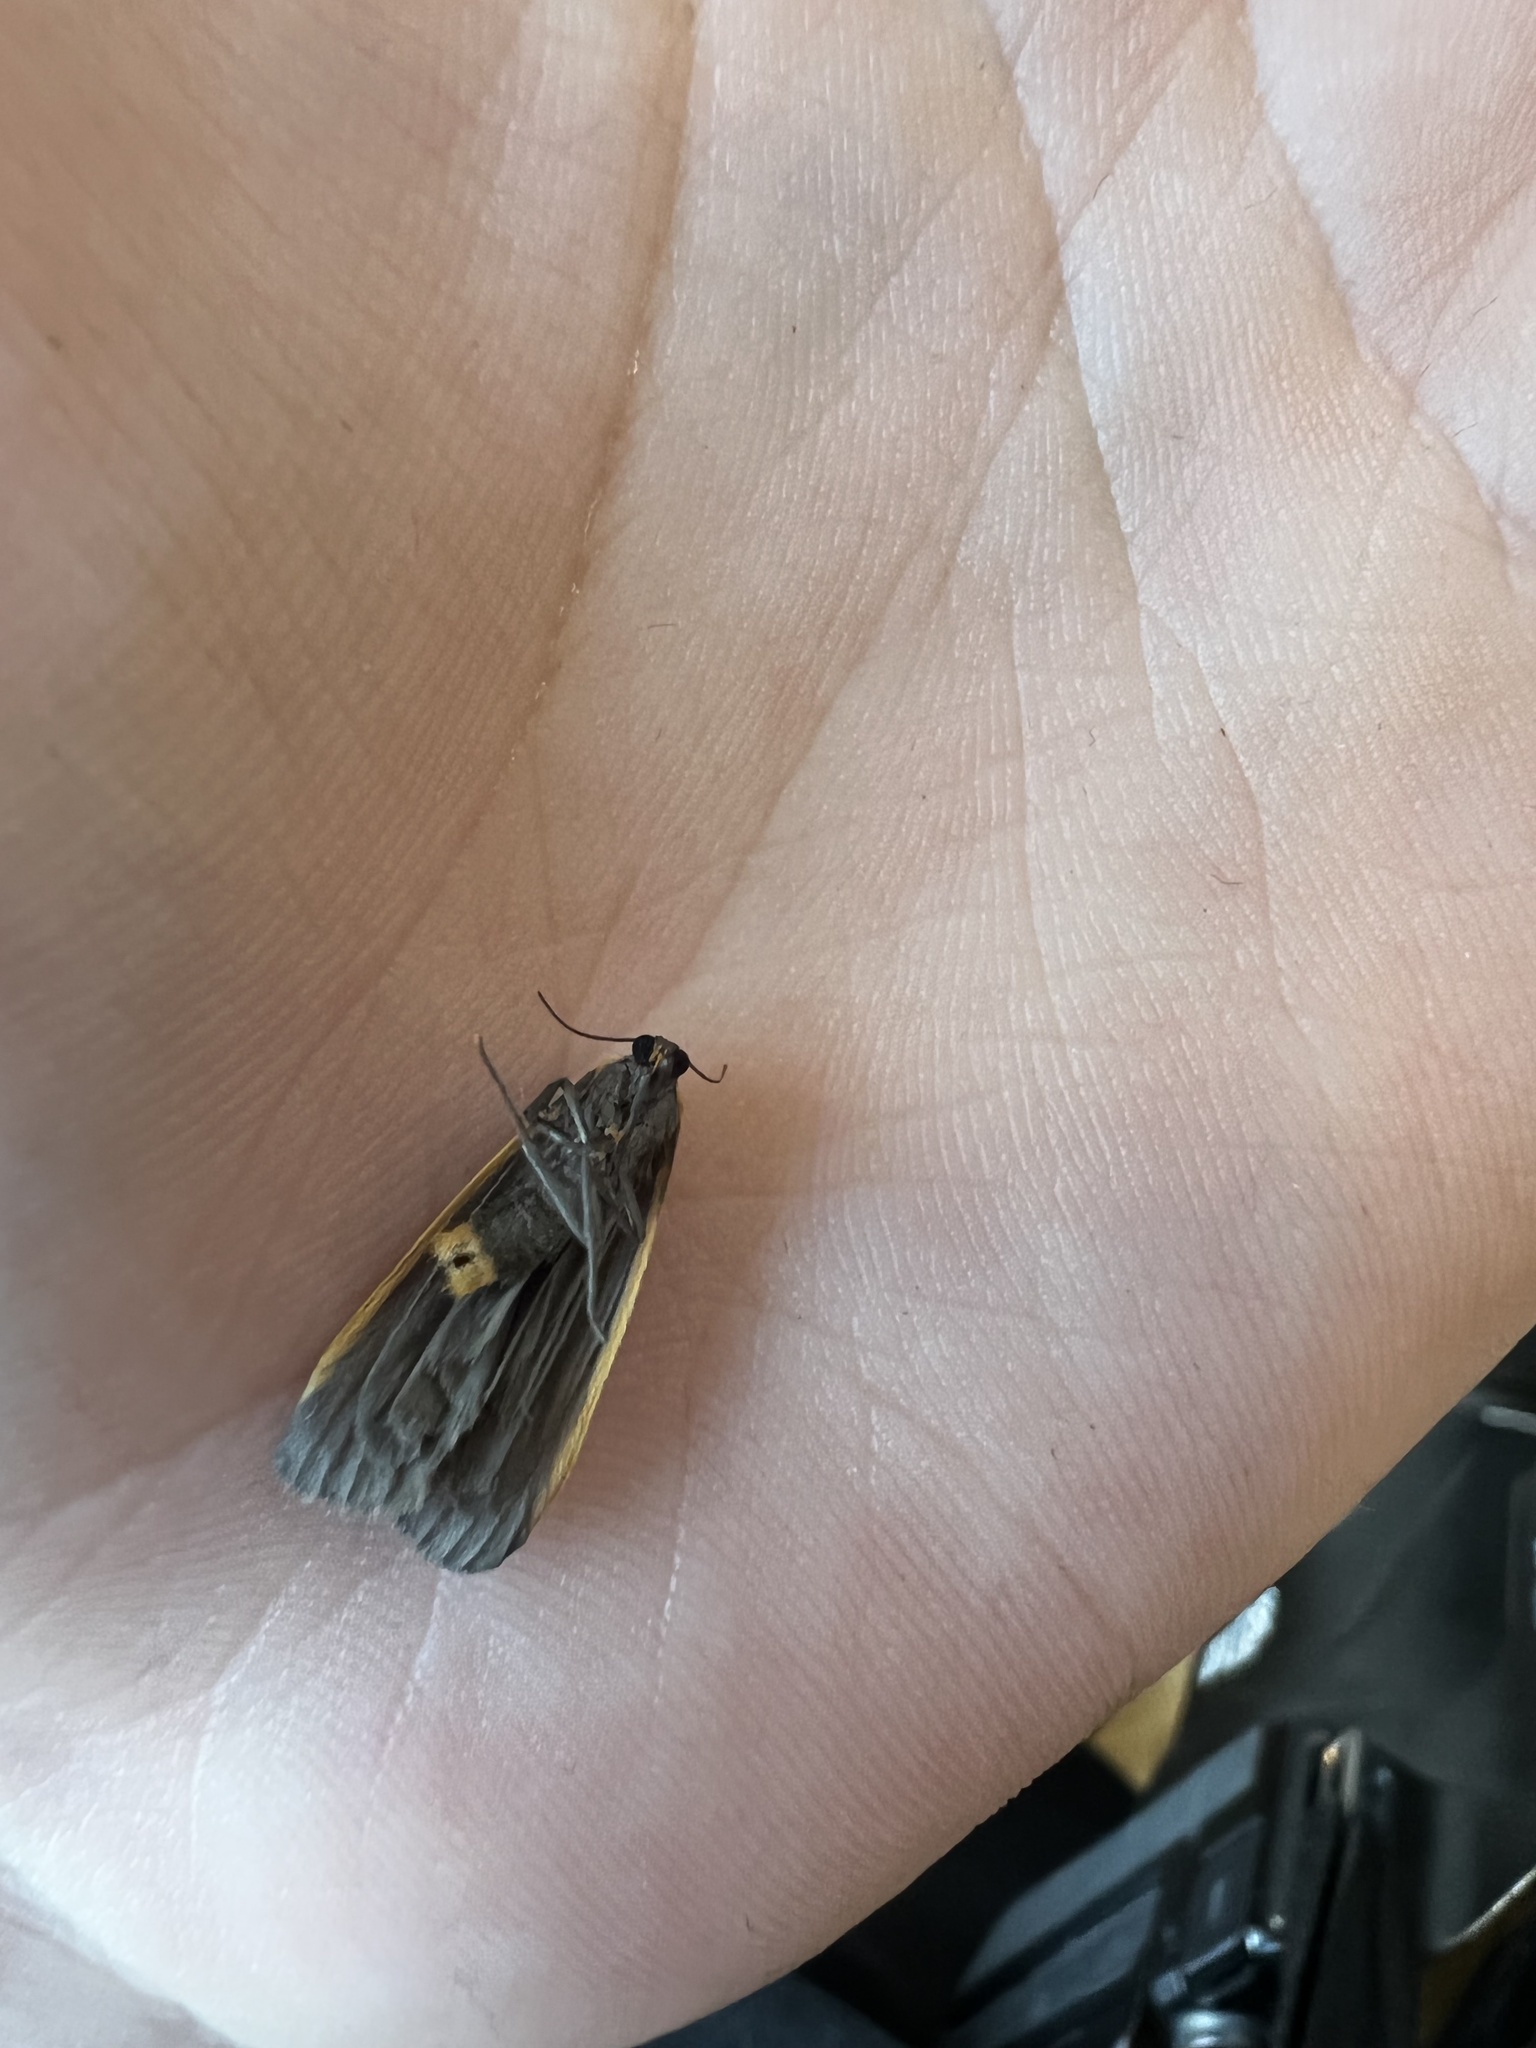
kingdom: Animalia
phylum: Arthropoda
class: Insecta
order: Lepidoptera
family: Erebidae
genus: Manulea
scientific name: Manulea bicolor
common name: Bicolored moth
